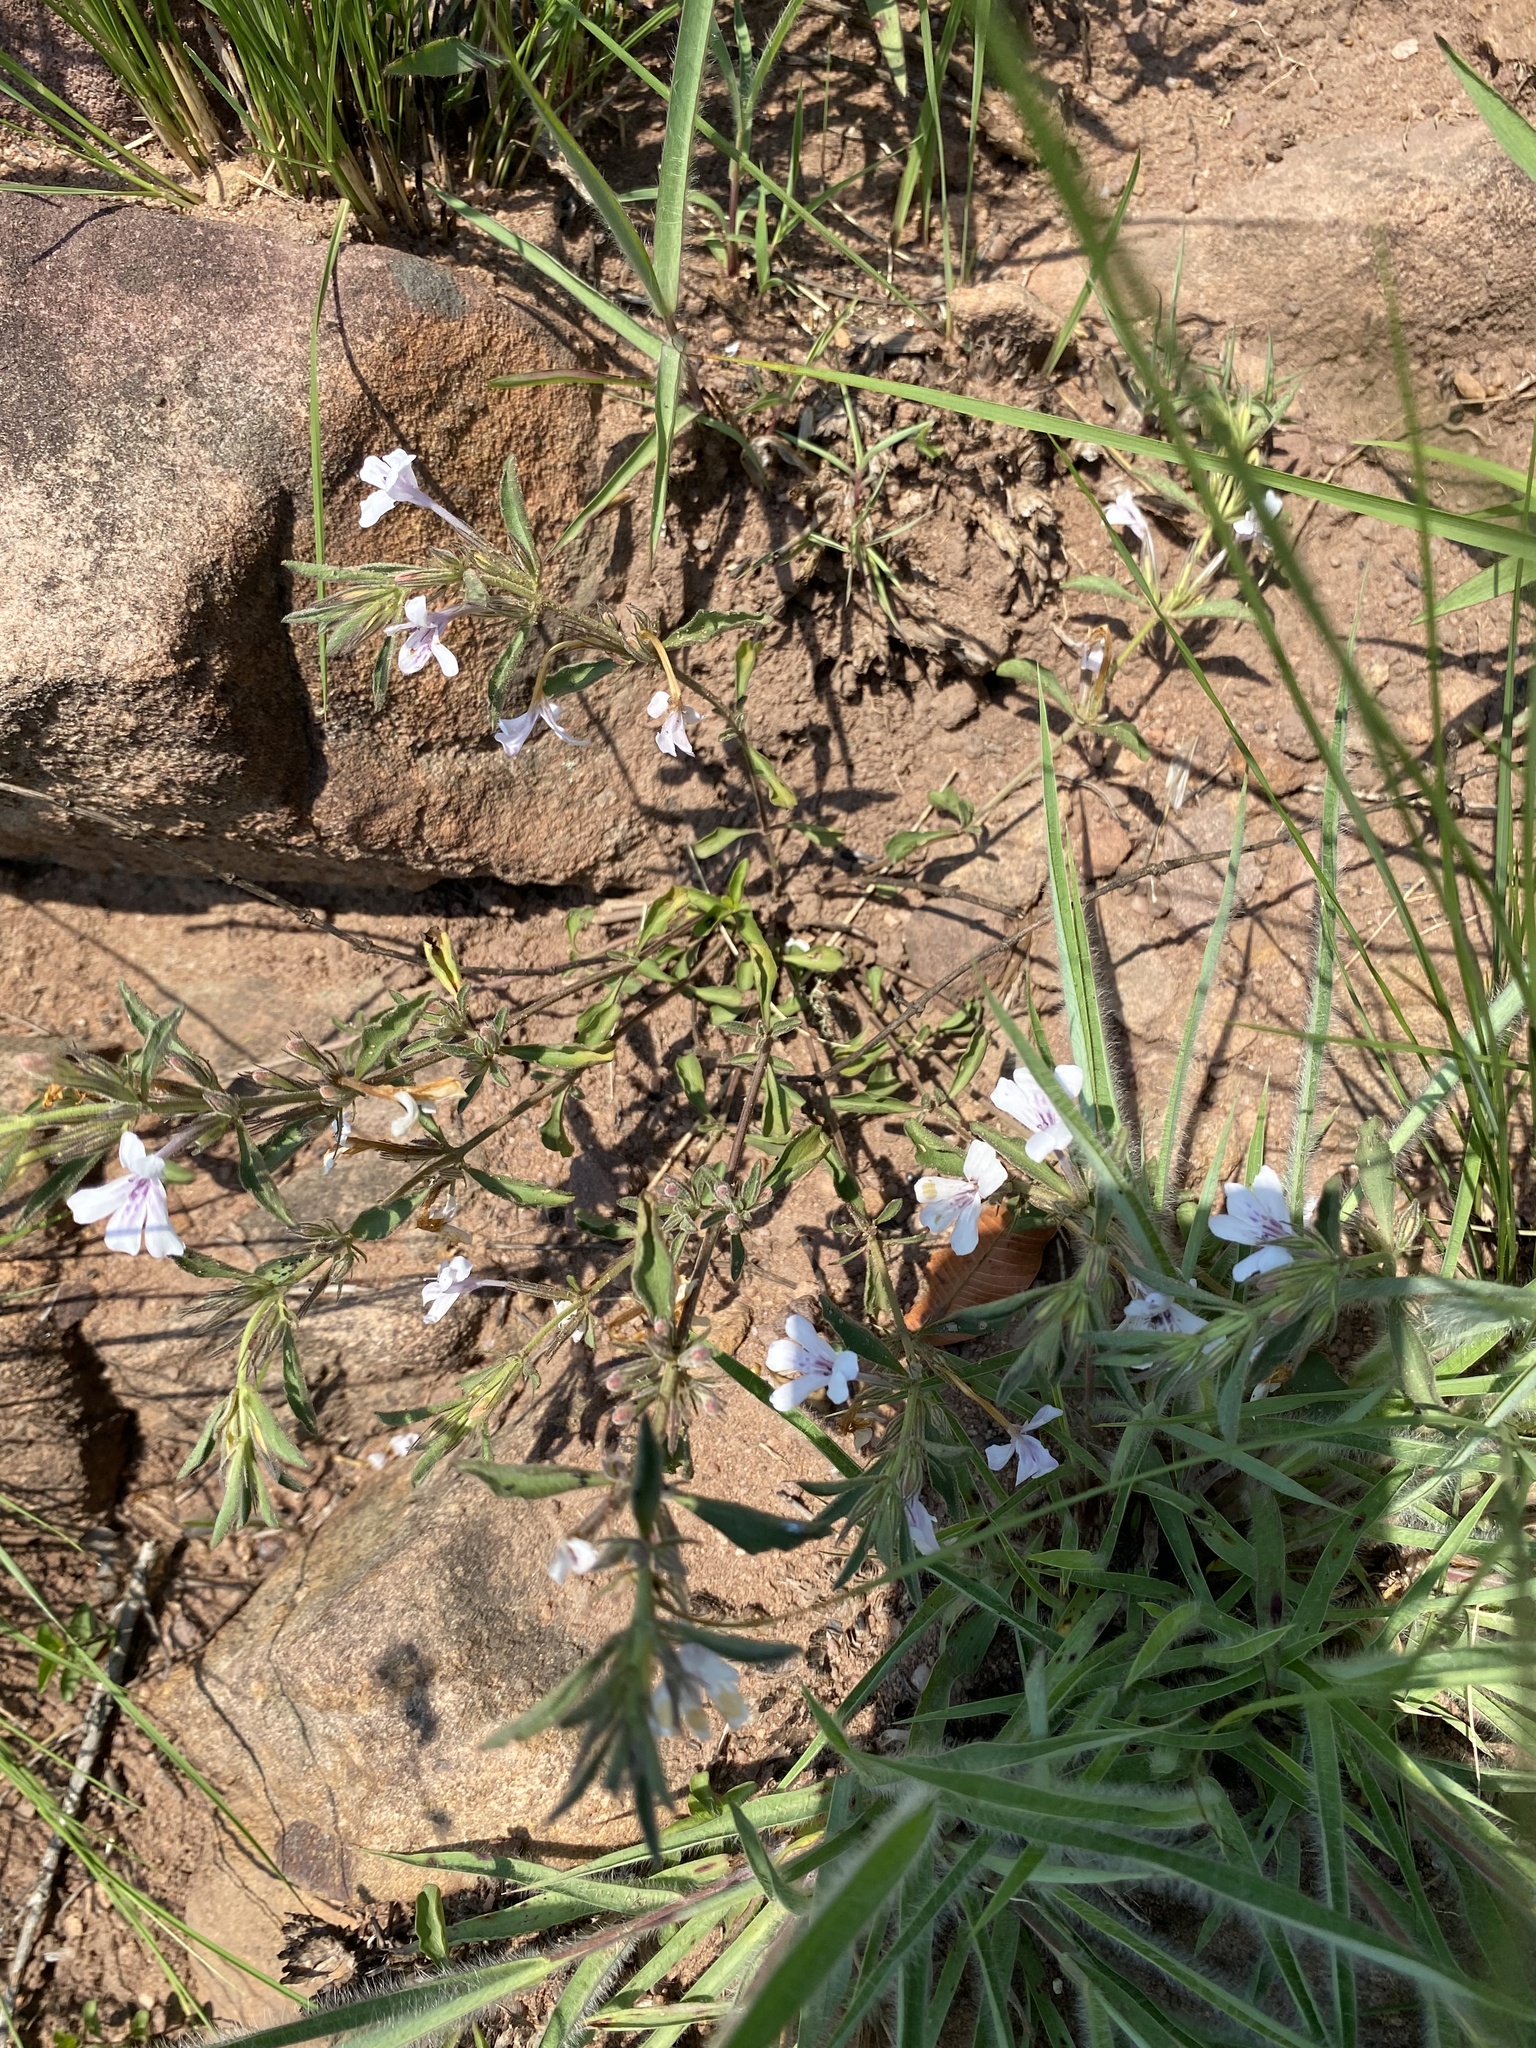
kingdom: Plantae
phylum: Tracheophyta
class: Magnoliopsida
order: Lamiales
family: Acanthaceae
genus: Dyschoriste
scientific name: Dyschoriste setigera
